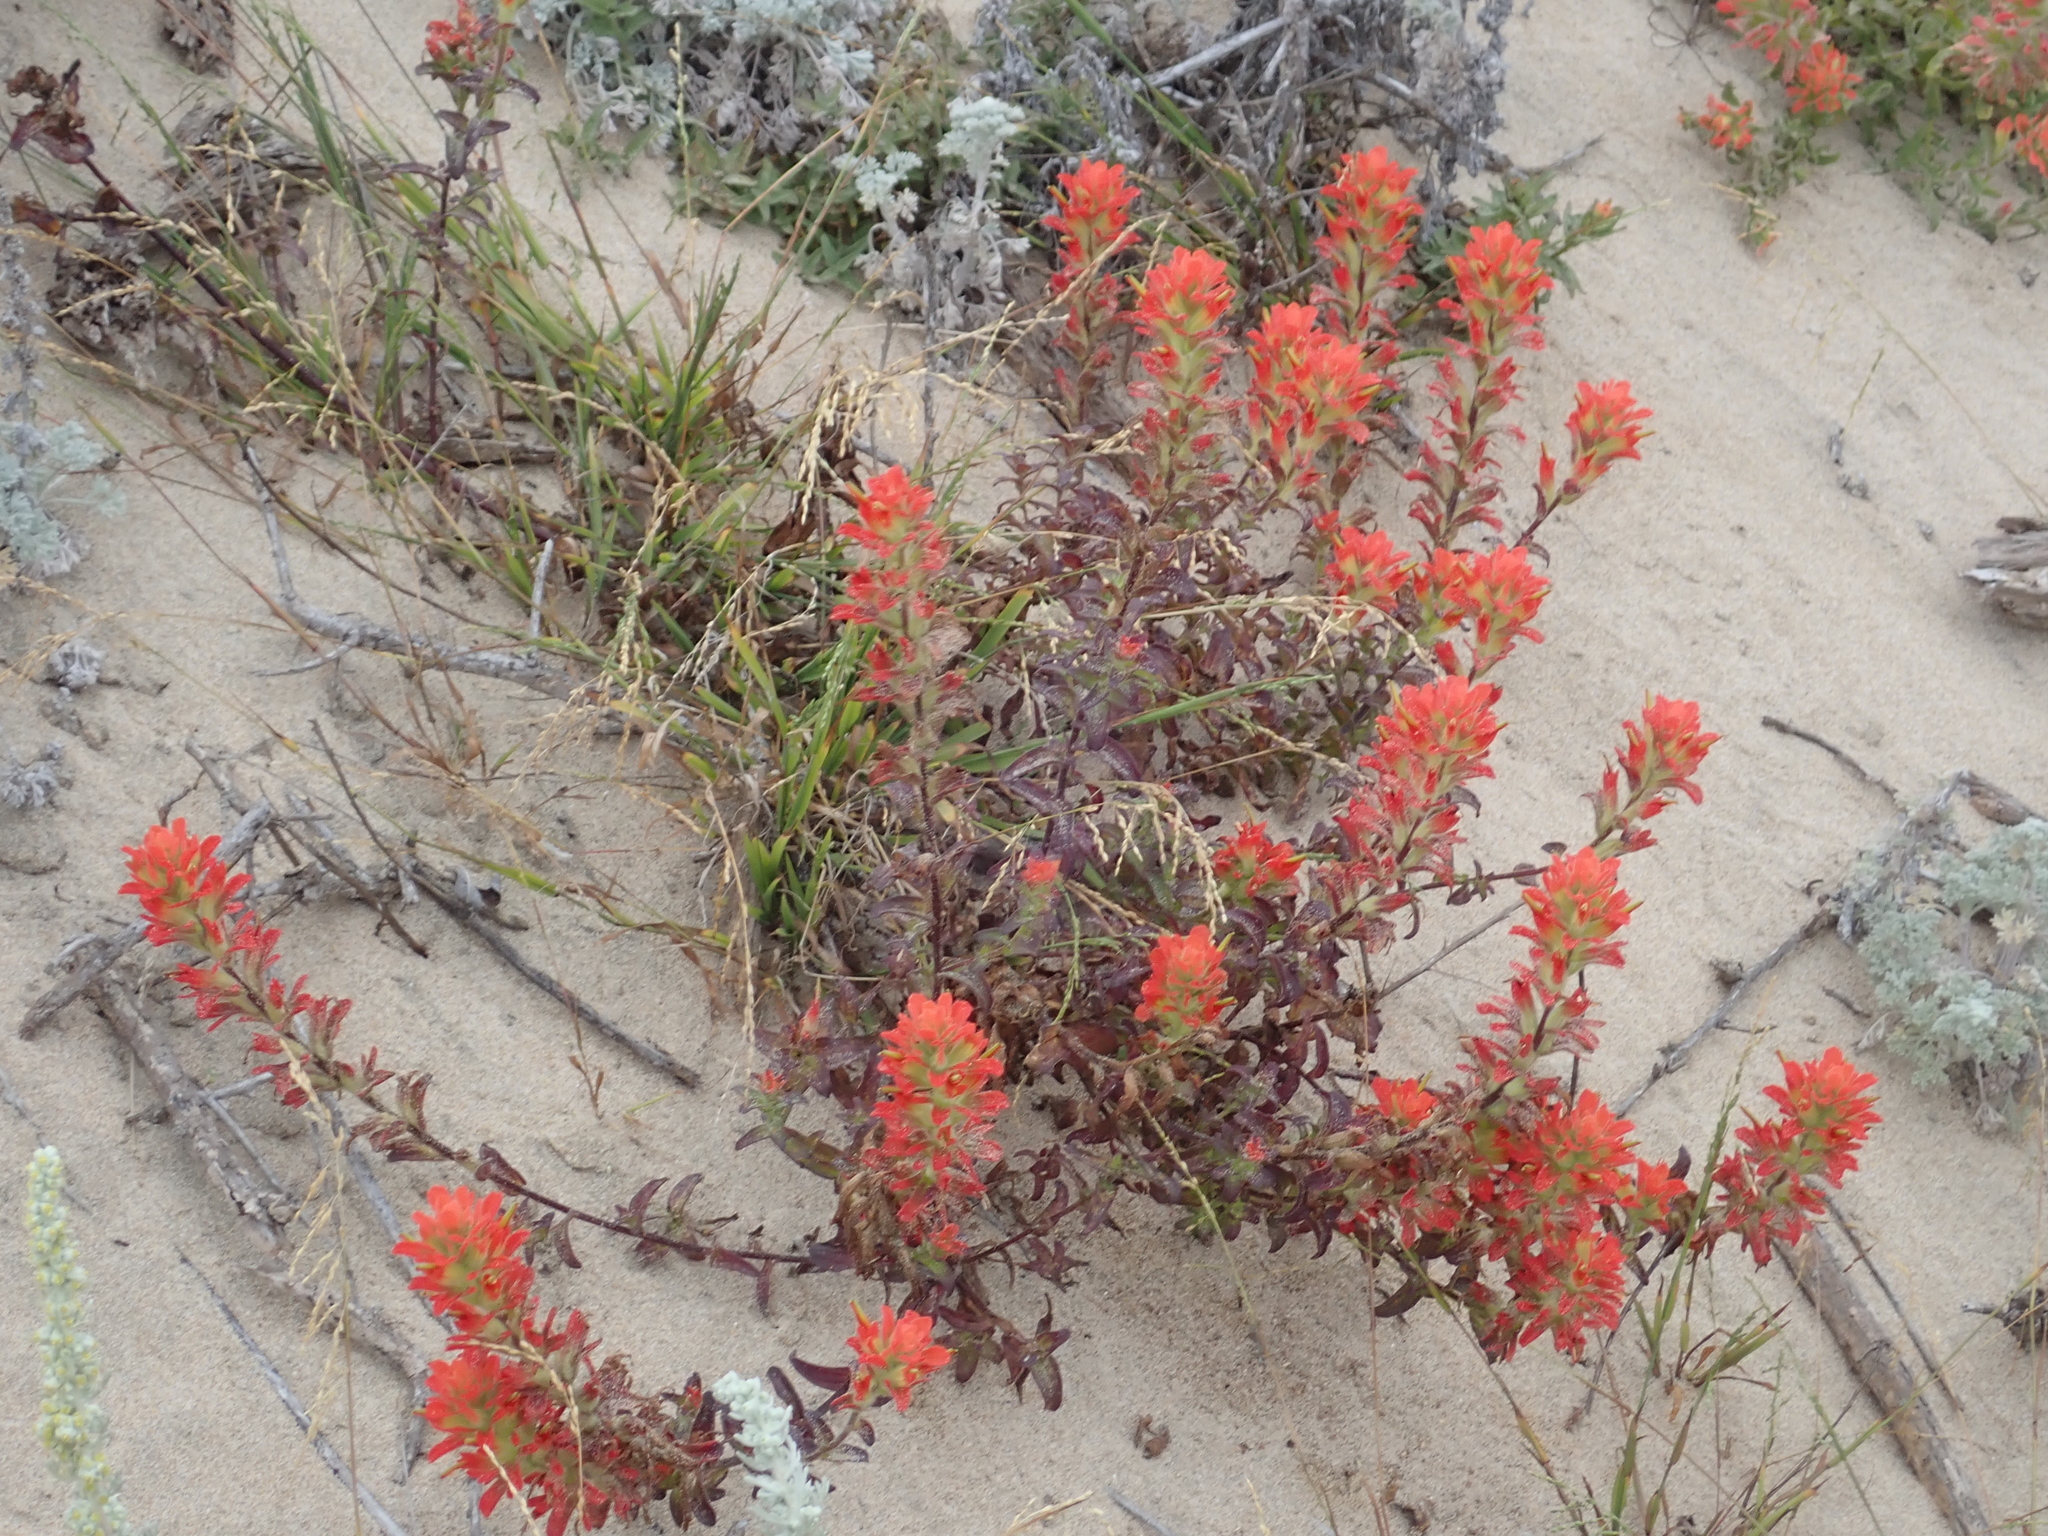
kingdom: Plantae
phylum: Tracheophyta
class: Magnoliopsida
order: Lamiales
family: Orobanchaceae
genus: Castilleja
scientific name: Castilleja affinis
